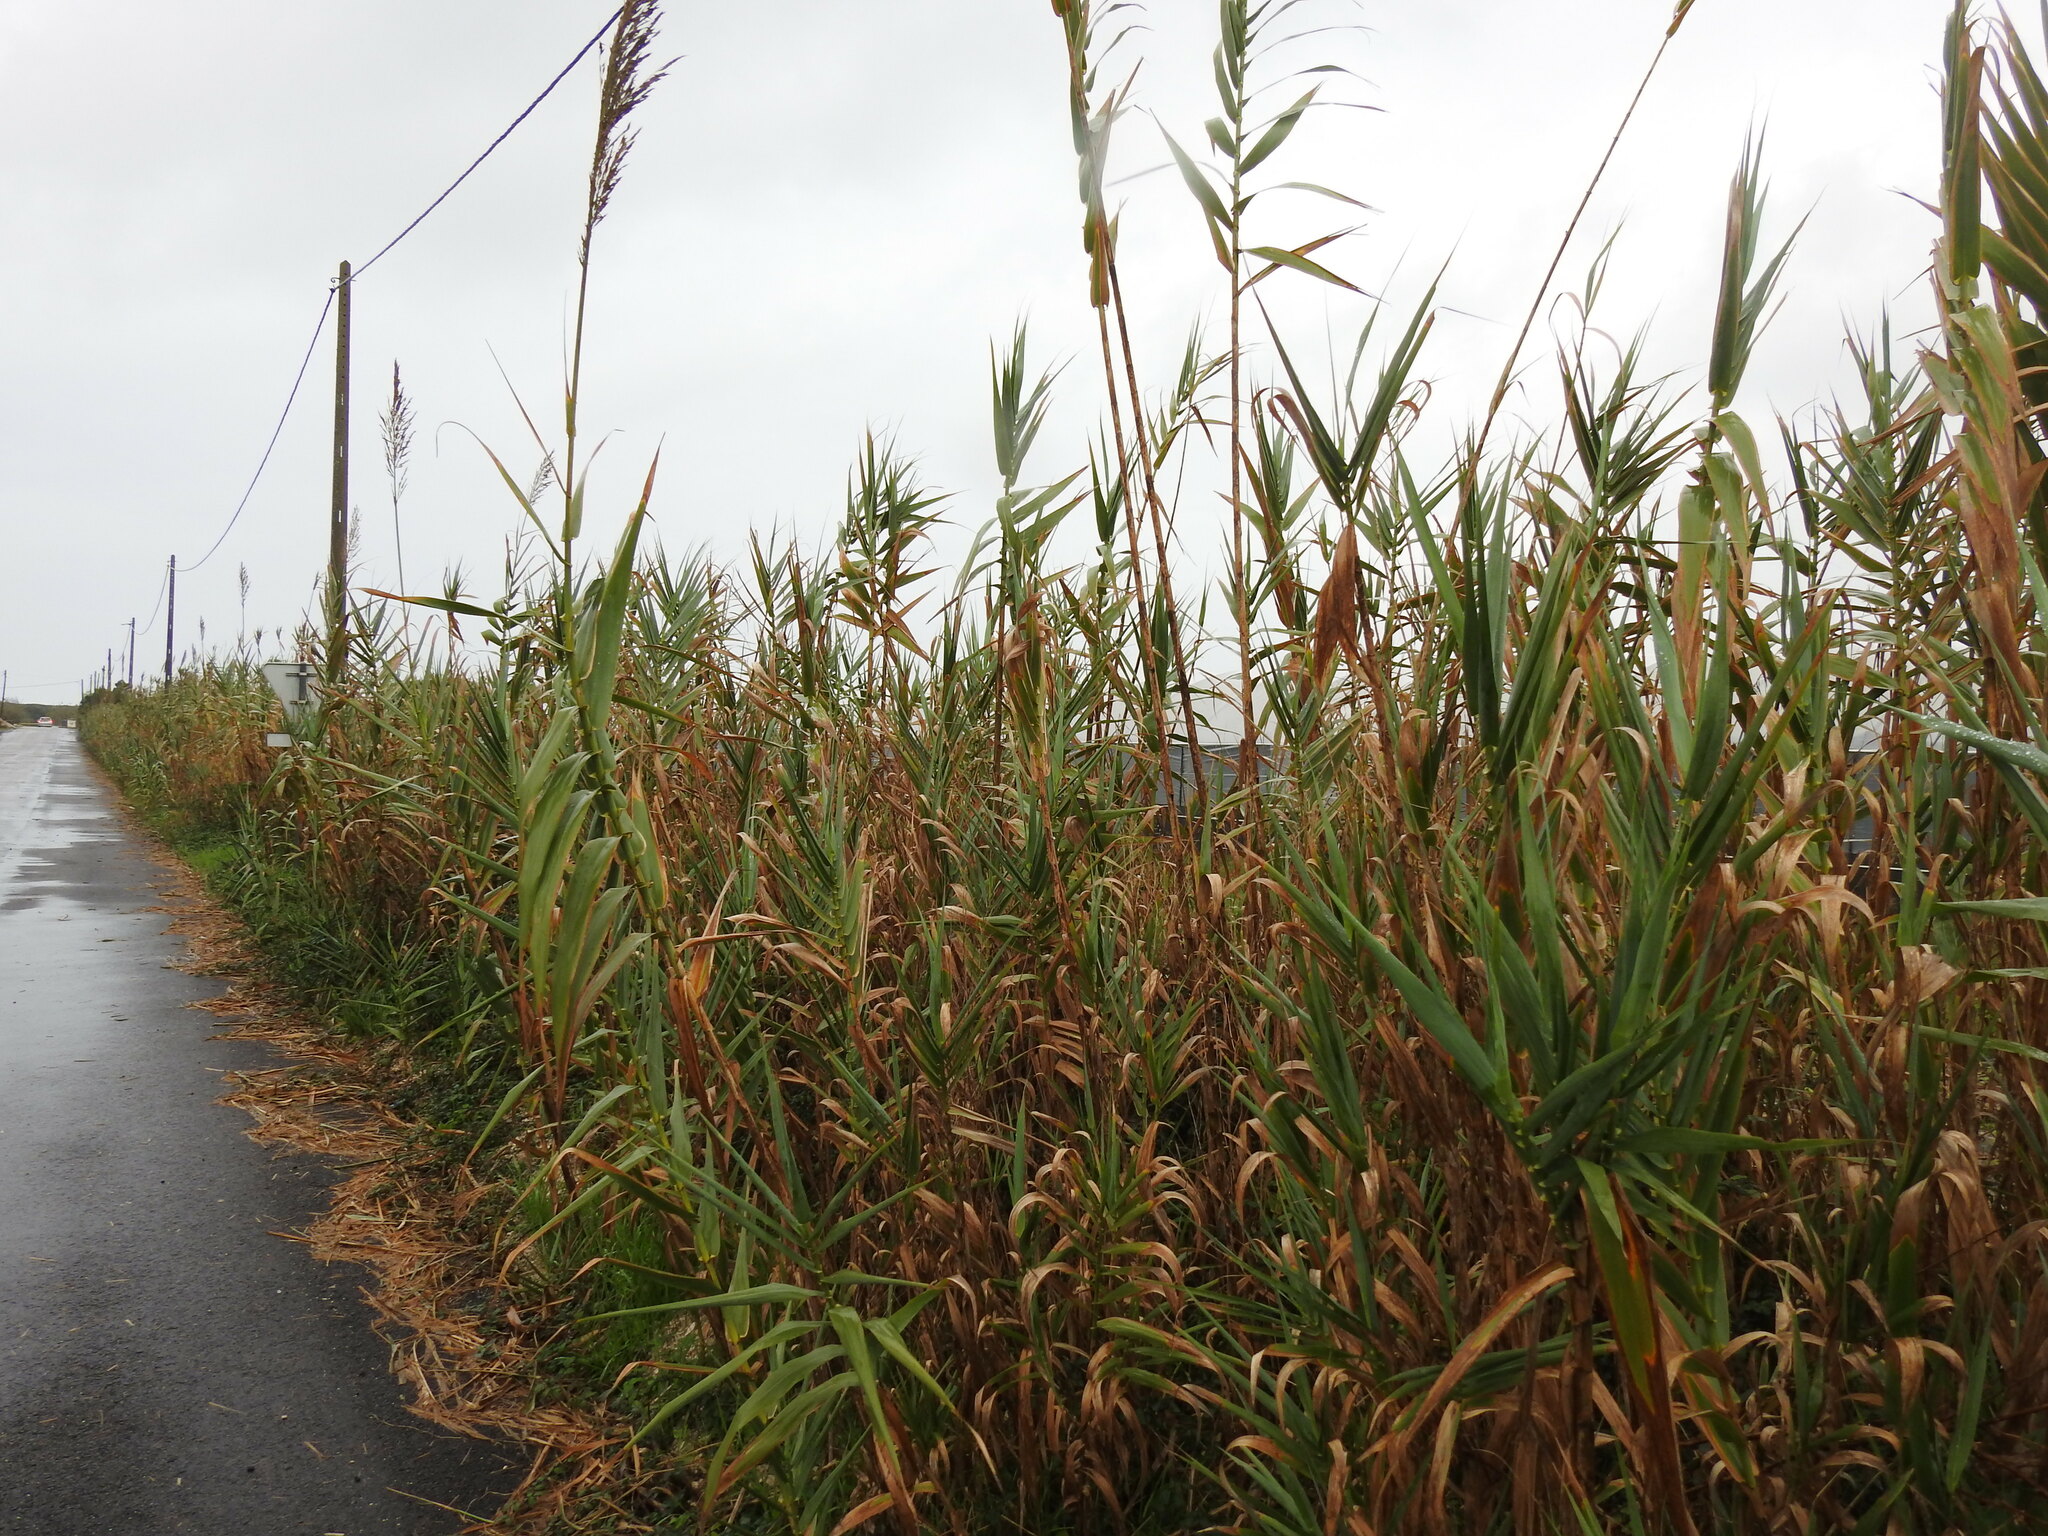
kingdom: Plantae
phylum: Tracheophyta
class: Liliopsida
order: Poales
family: Poaceae
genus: Arundo
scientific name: Arundo donax
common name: Giant reed
